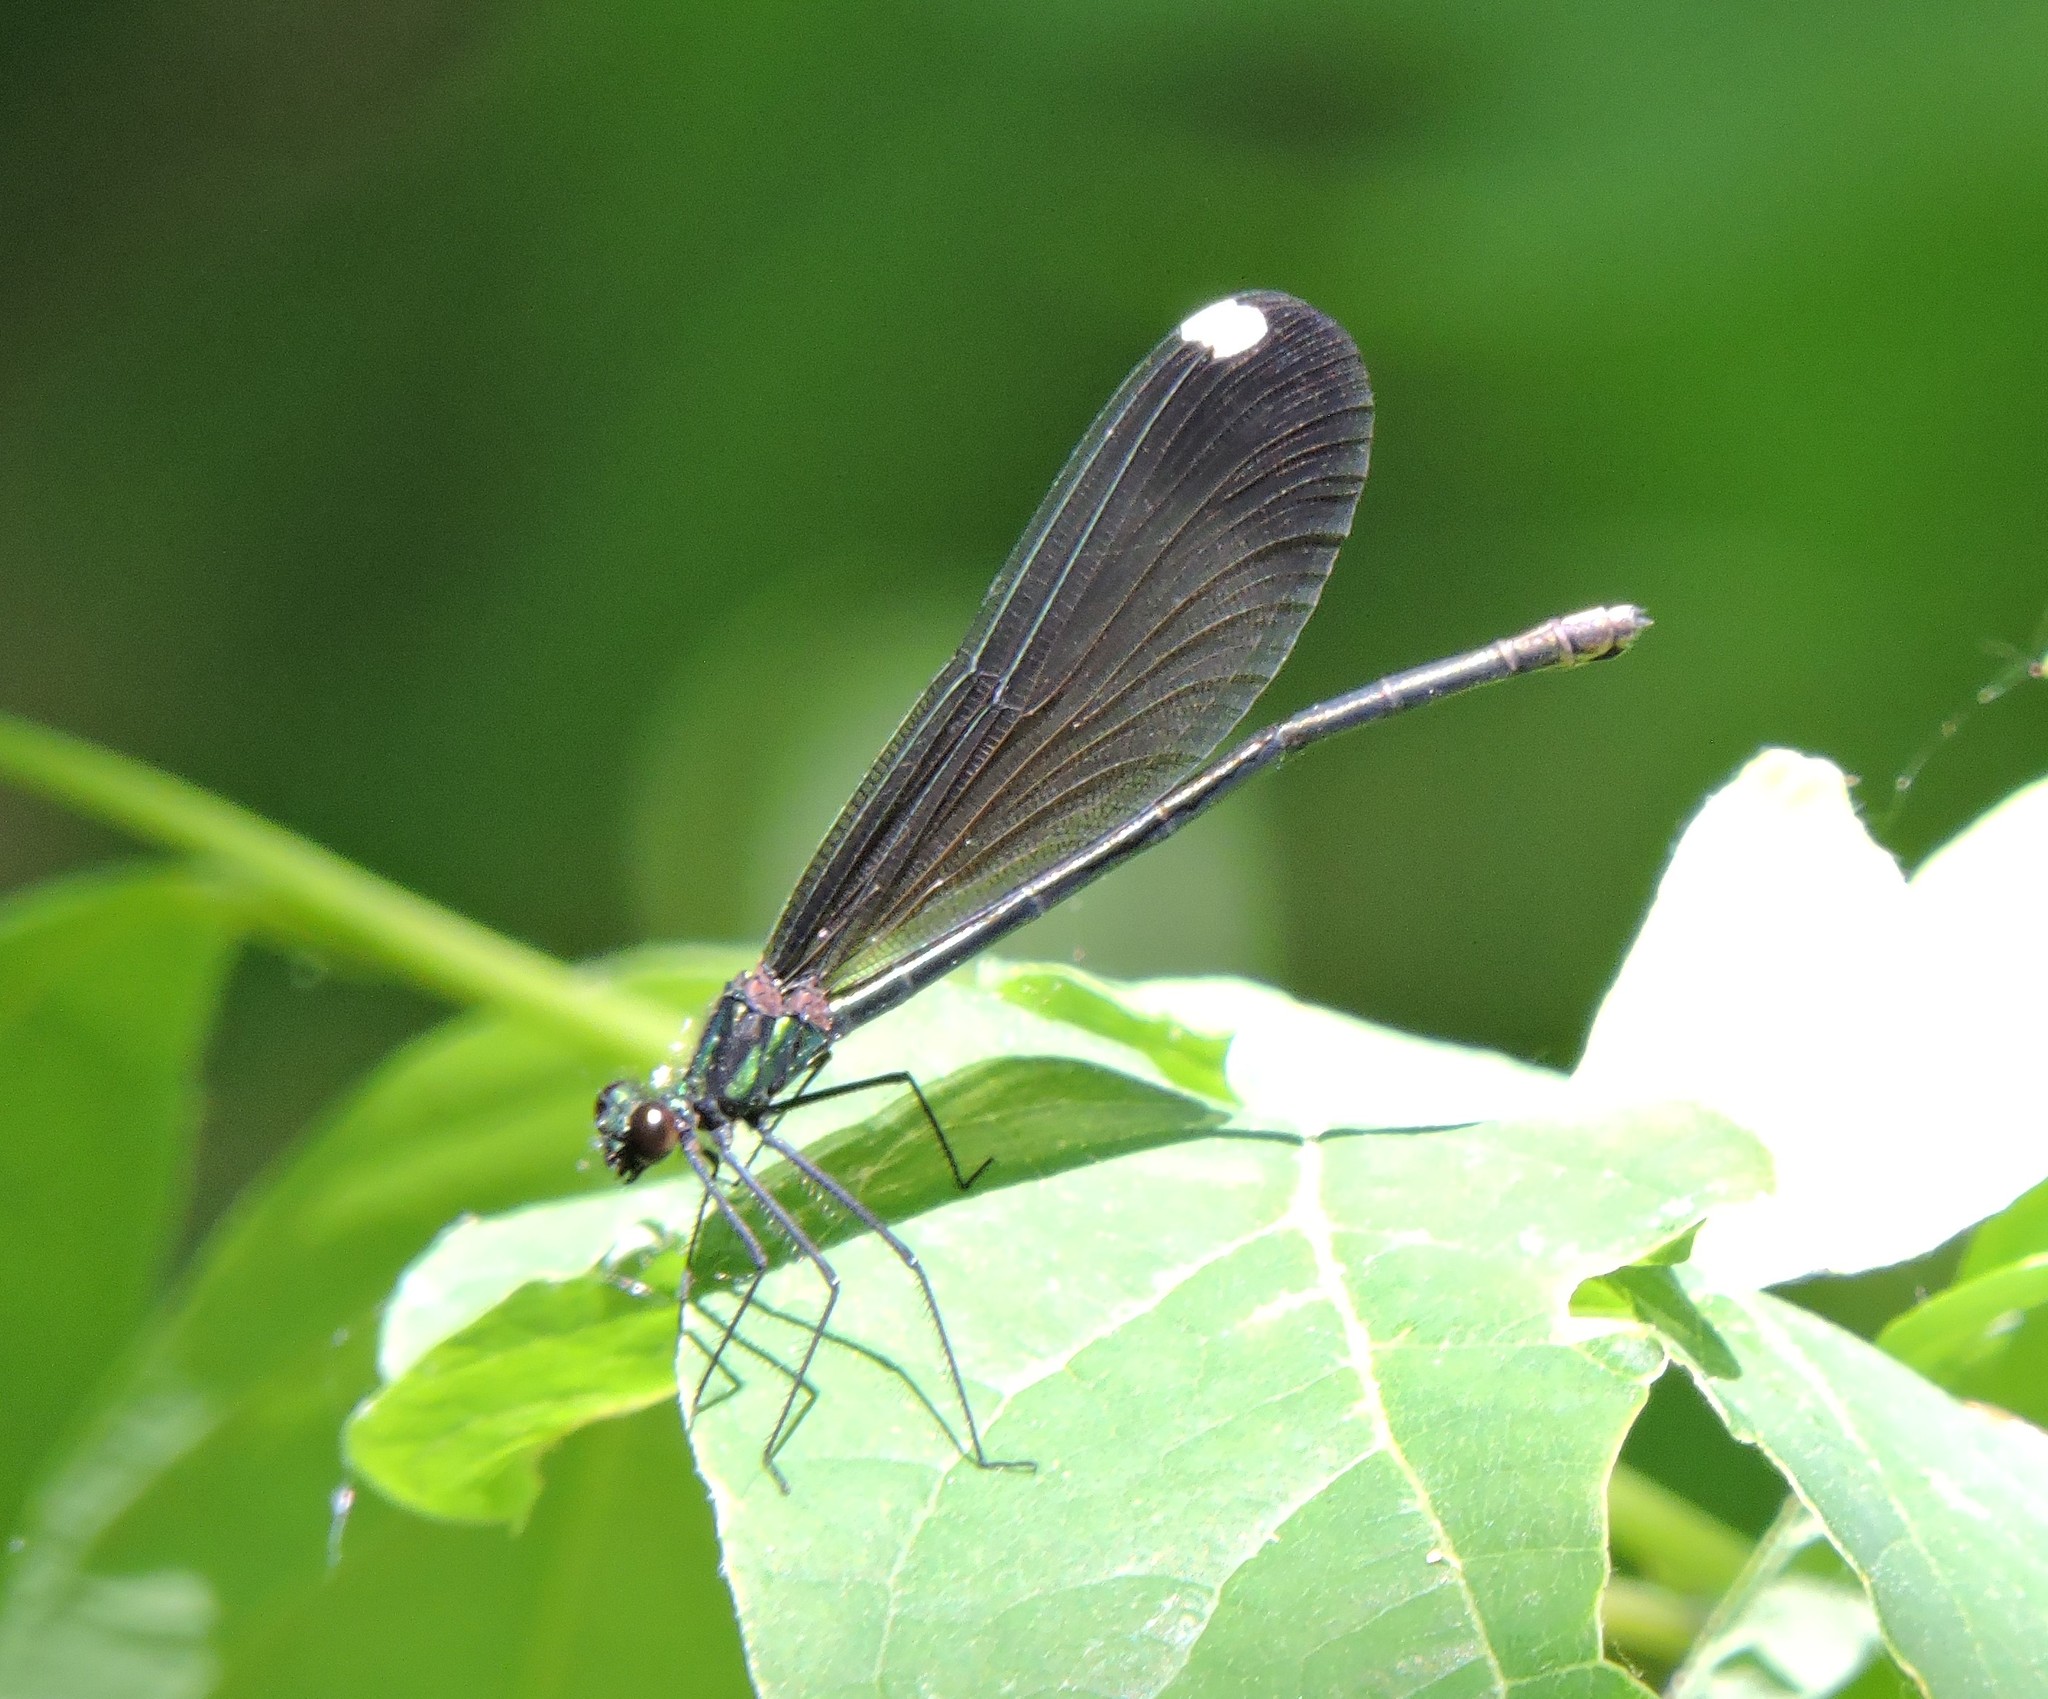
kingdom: Animalia
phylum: Arthropoda
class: Insecta
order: Odonata
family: Calopterygidae
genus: Calopteryx
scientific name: Calopteryx maculata
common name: Ebony jewelwing
